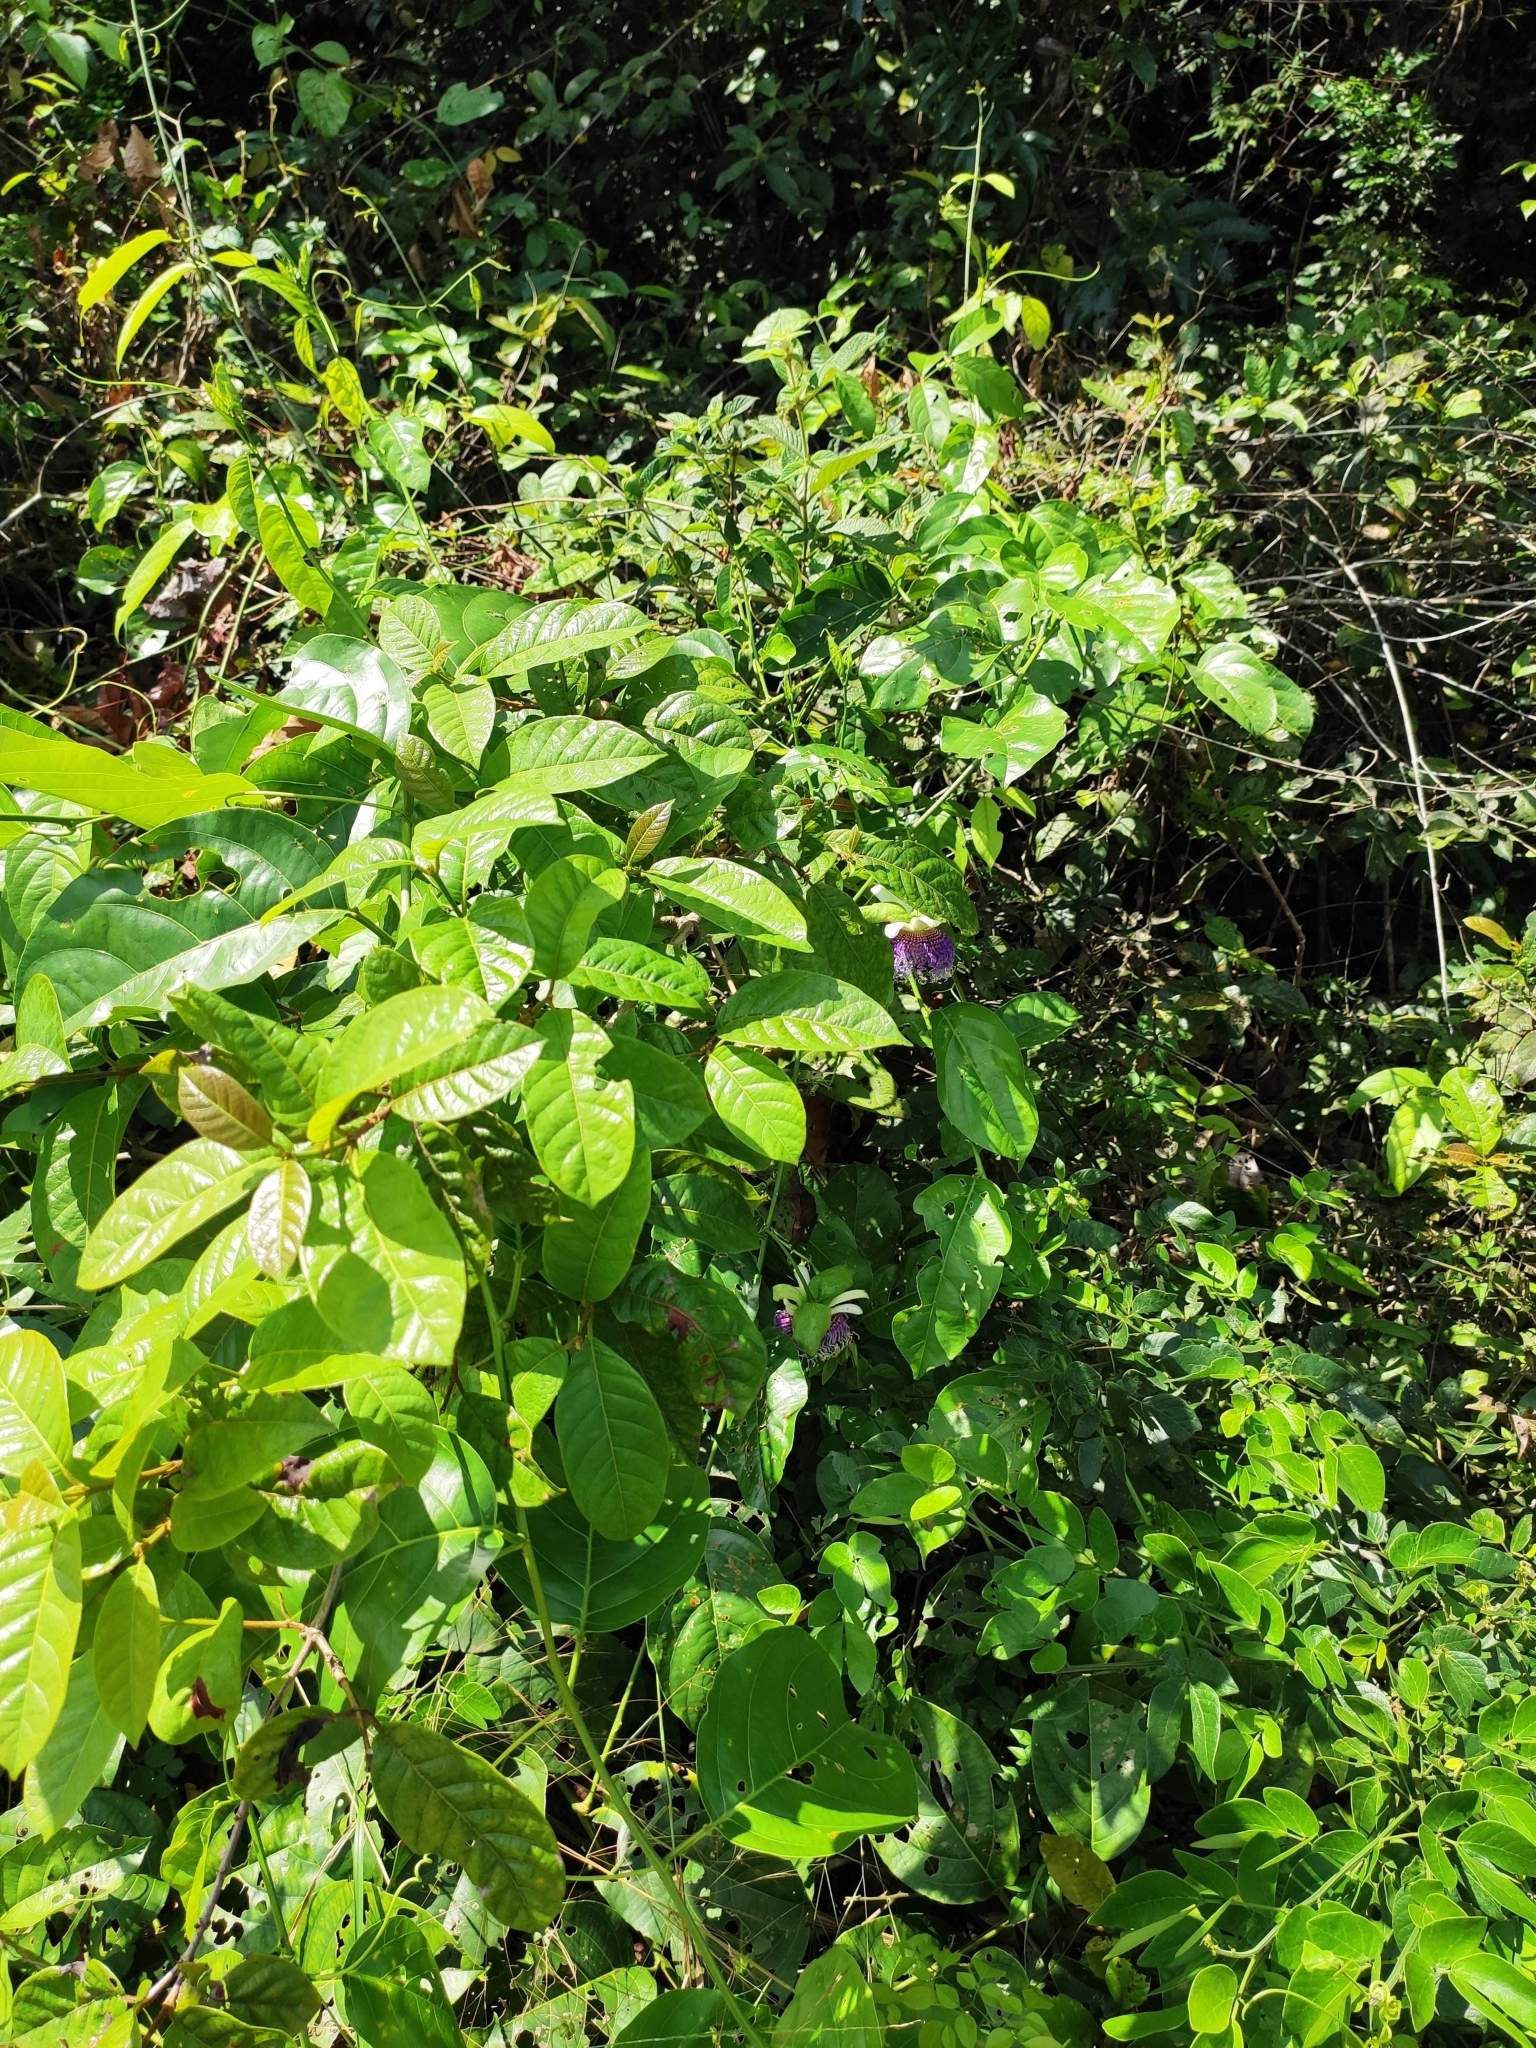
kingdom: Plantae
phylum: Tracheophyta
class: Magnoliopsida
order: Malpighiales
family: Passifloraceae
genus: Passiflora
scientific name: Passiflora nitida
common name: Bell-apple
